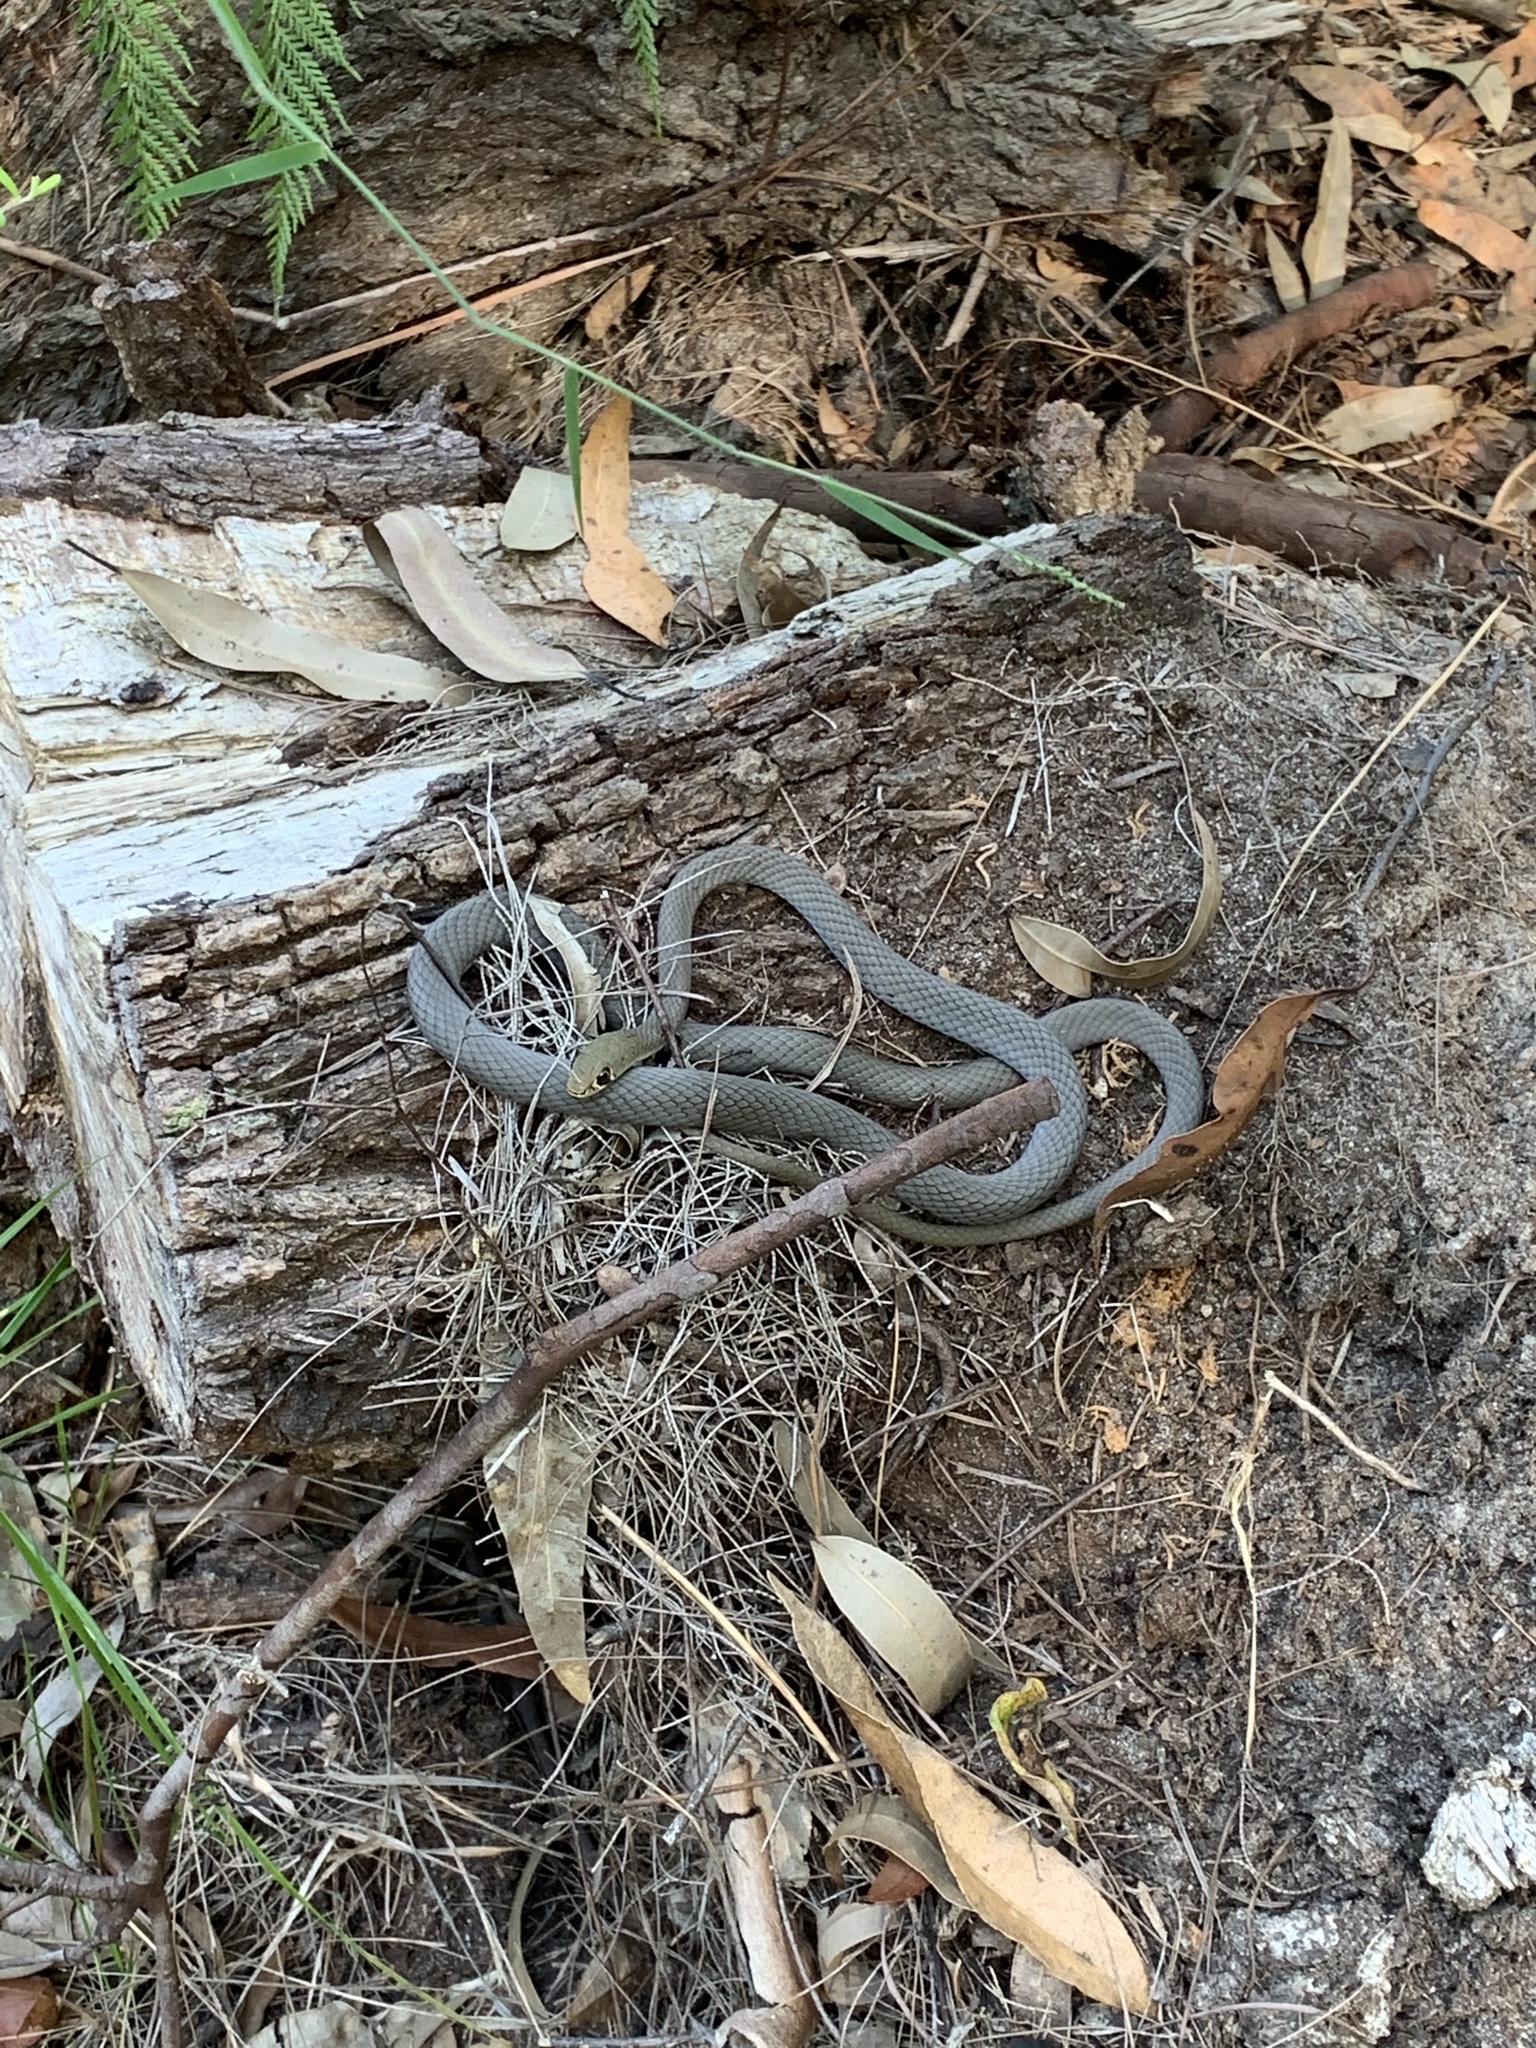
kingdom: Animalia
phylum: Chordata
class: Squamata
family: Elapidae
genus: Demansia
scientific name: Demansia psammophis
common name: Yellow-faced whip snake
